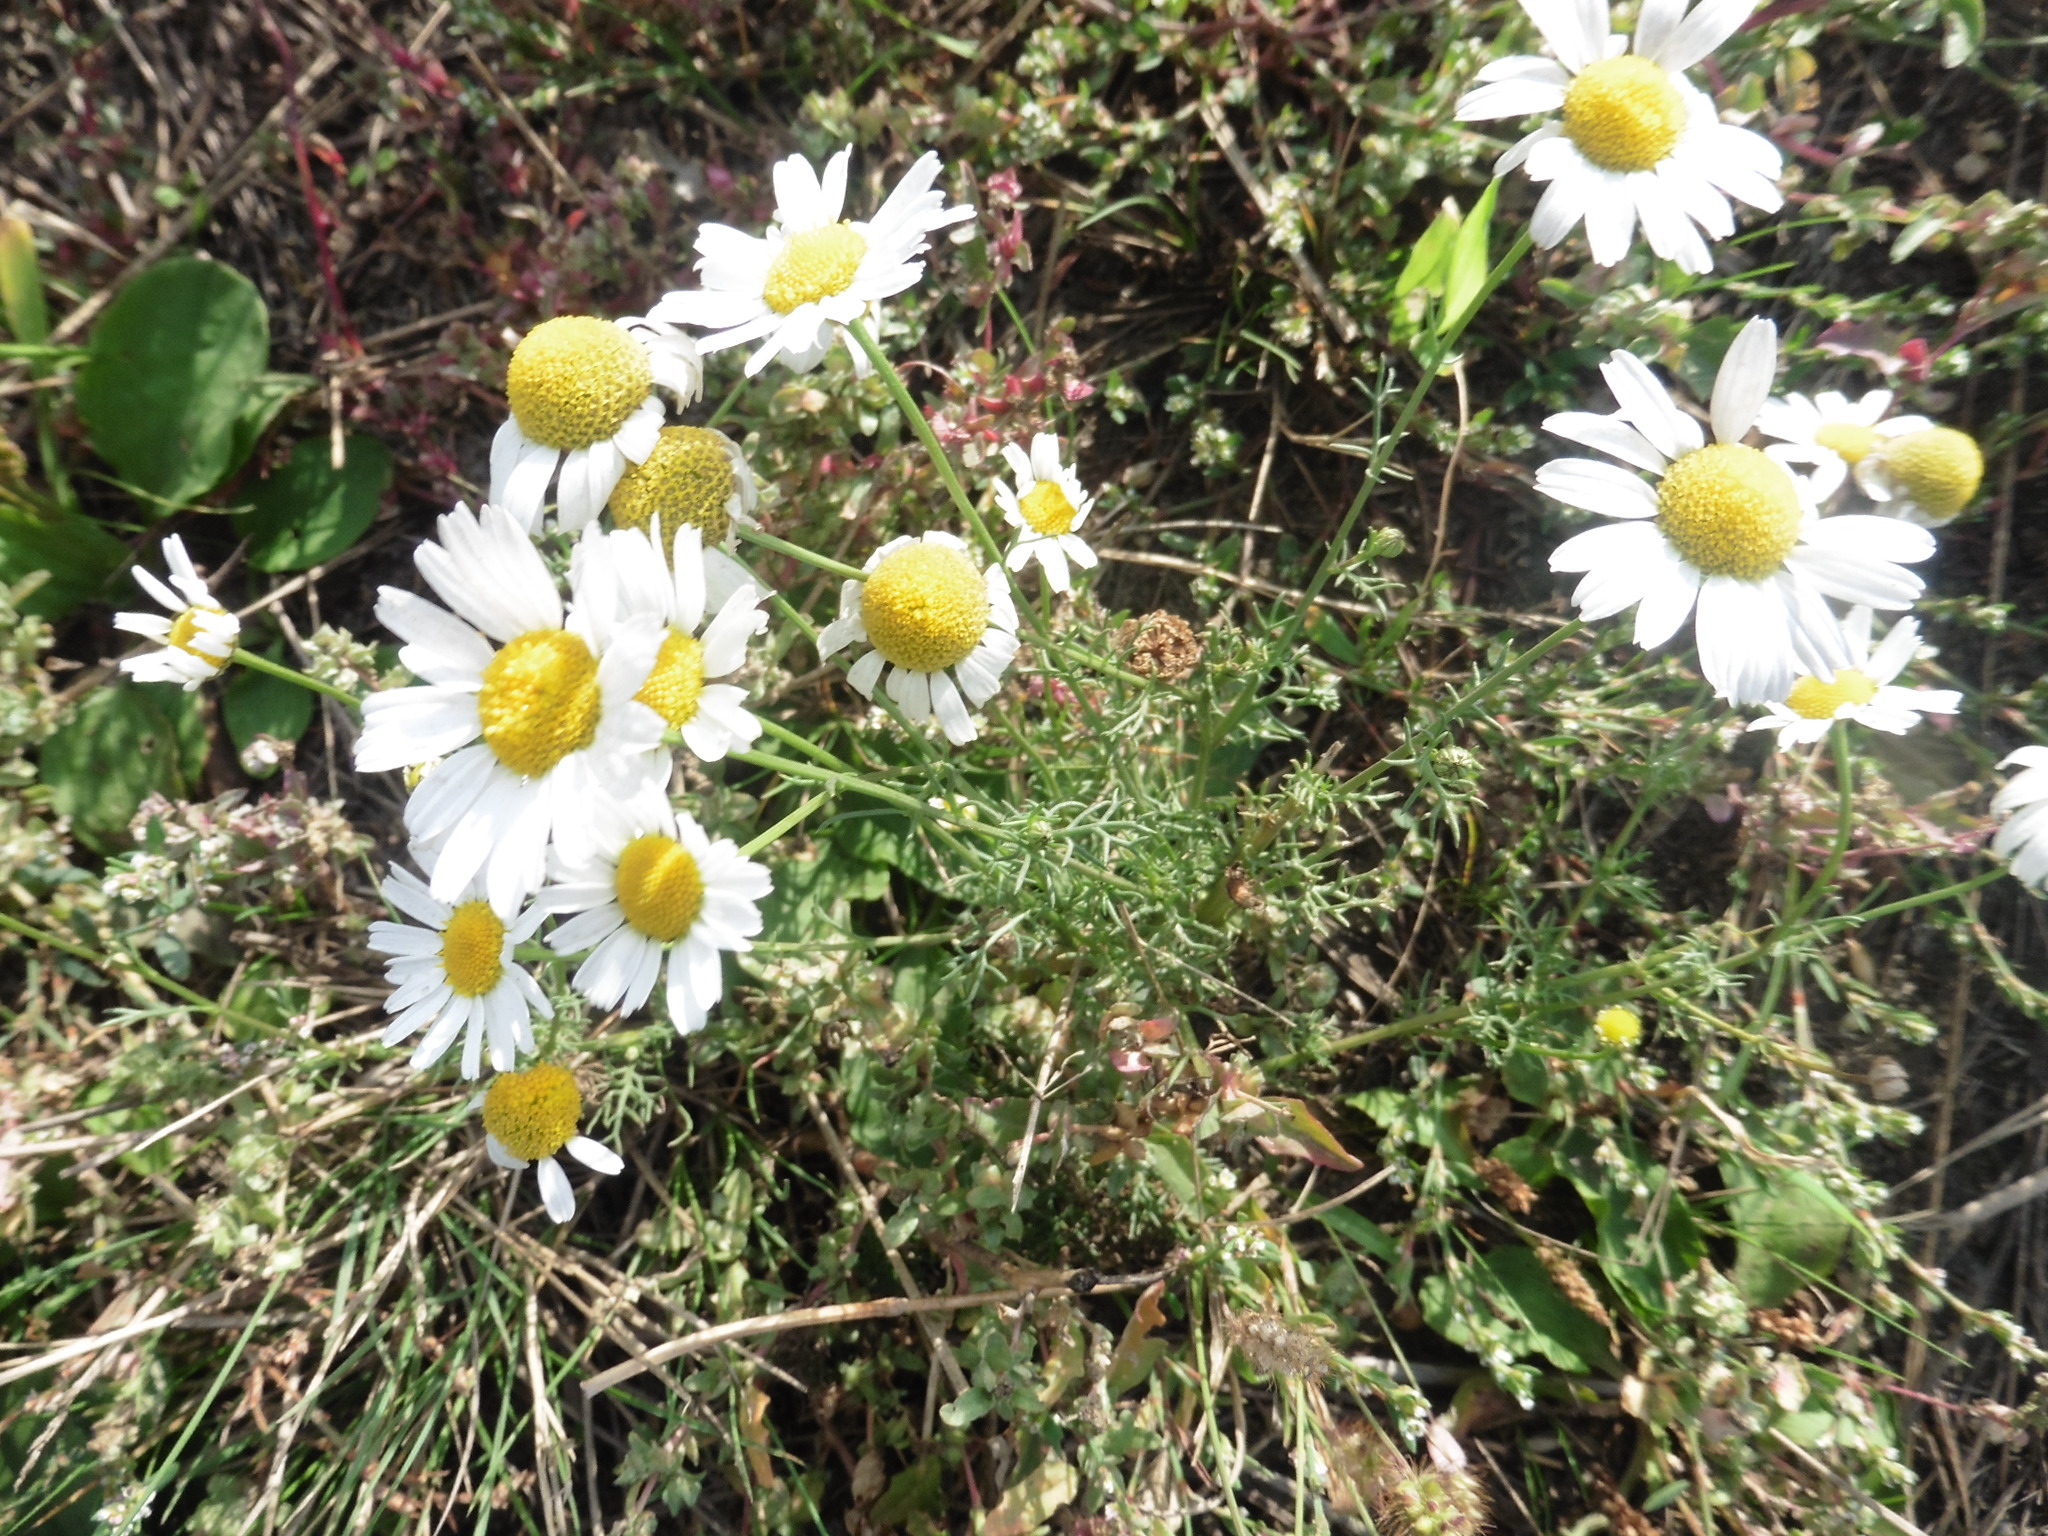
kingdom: Plantae
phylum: Tracheophyta
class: Magnoliopsida
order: Asterales
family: Asteraceae
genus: Tripleurospermum
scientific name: Tripleurospermum inodorum
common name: Scentless mayweed
